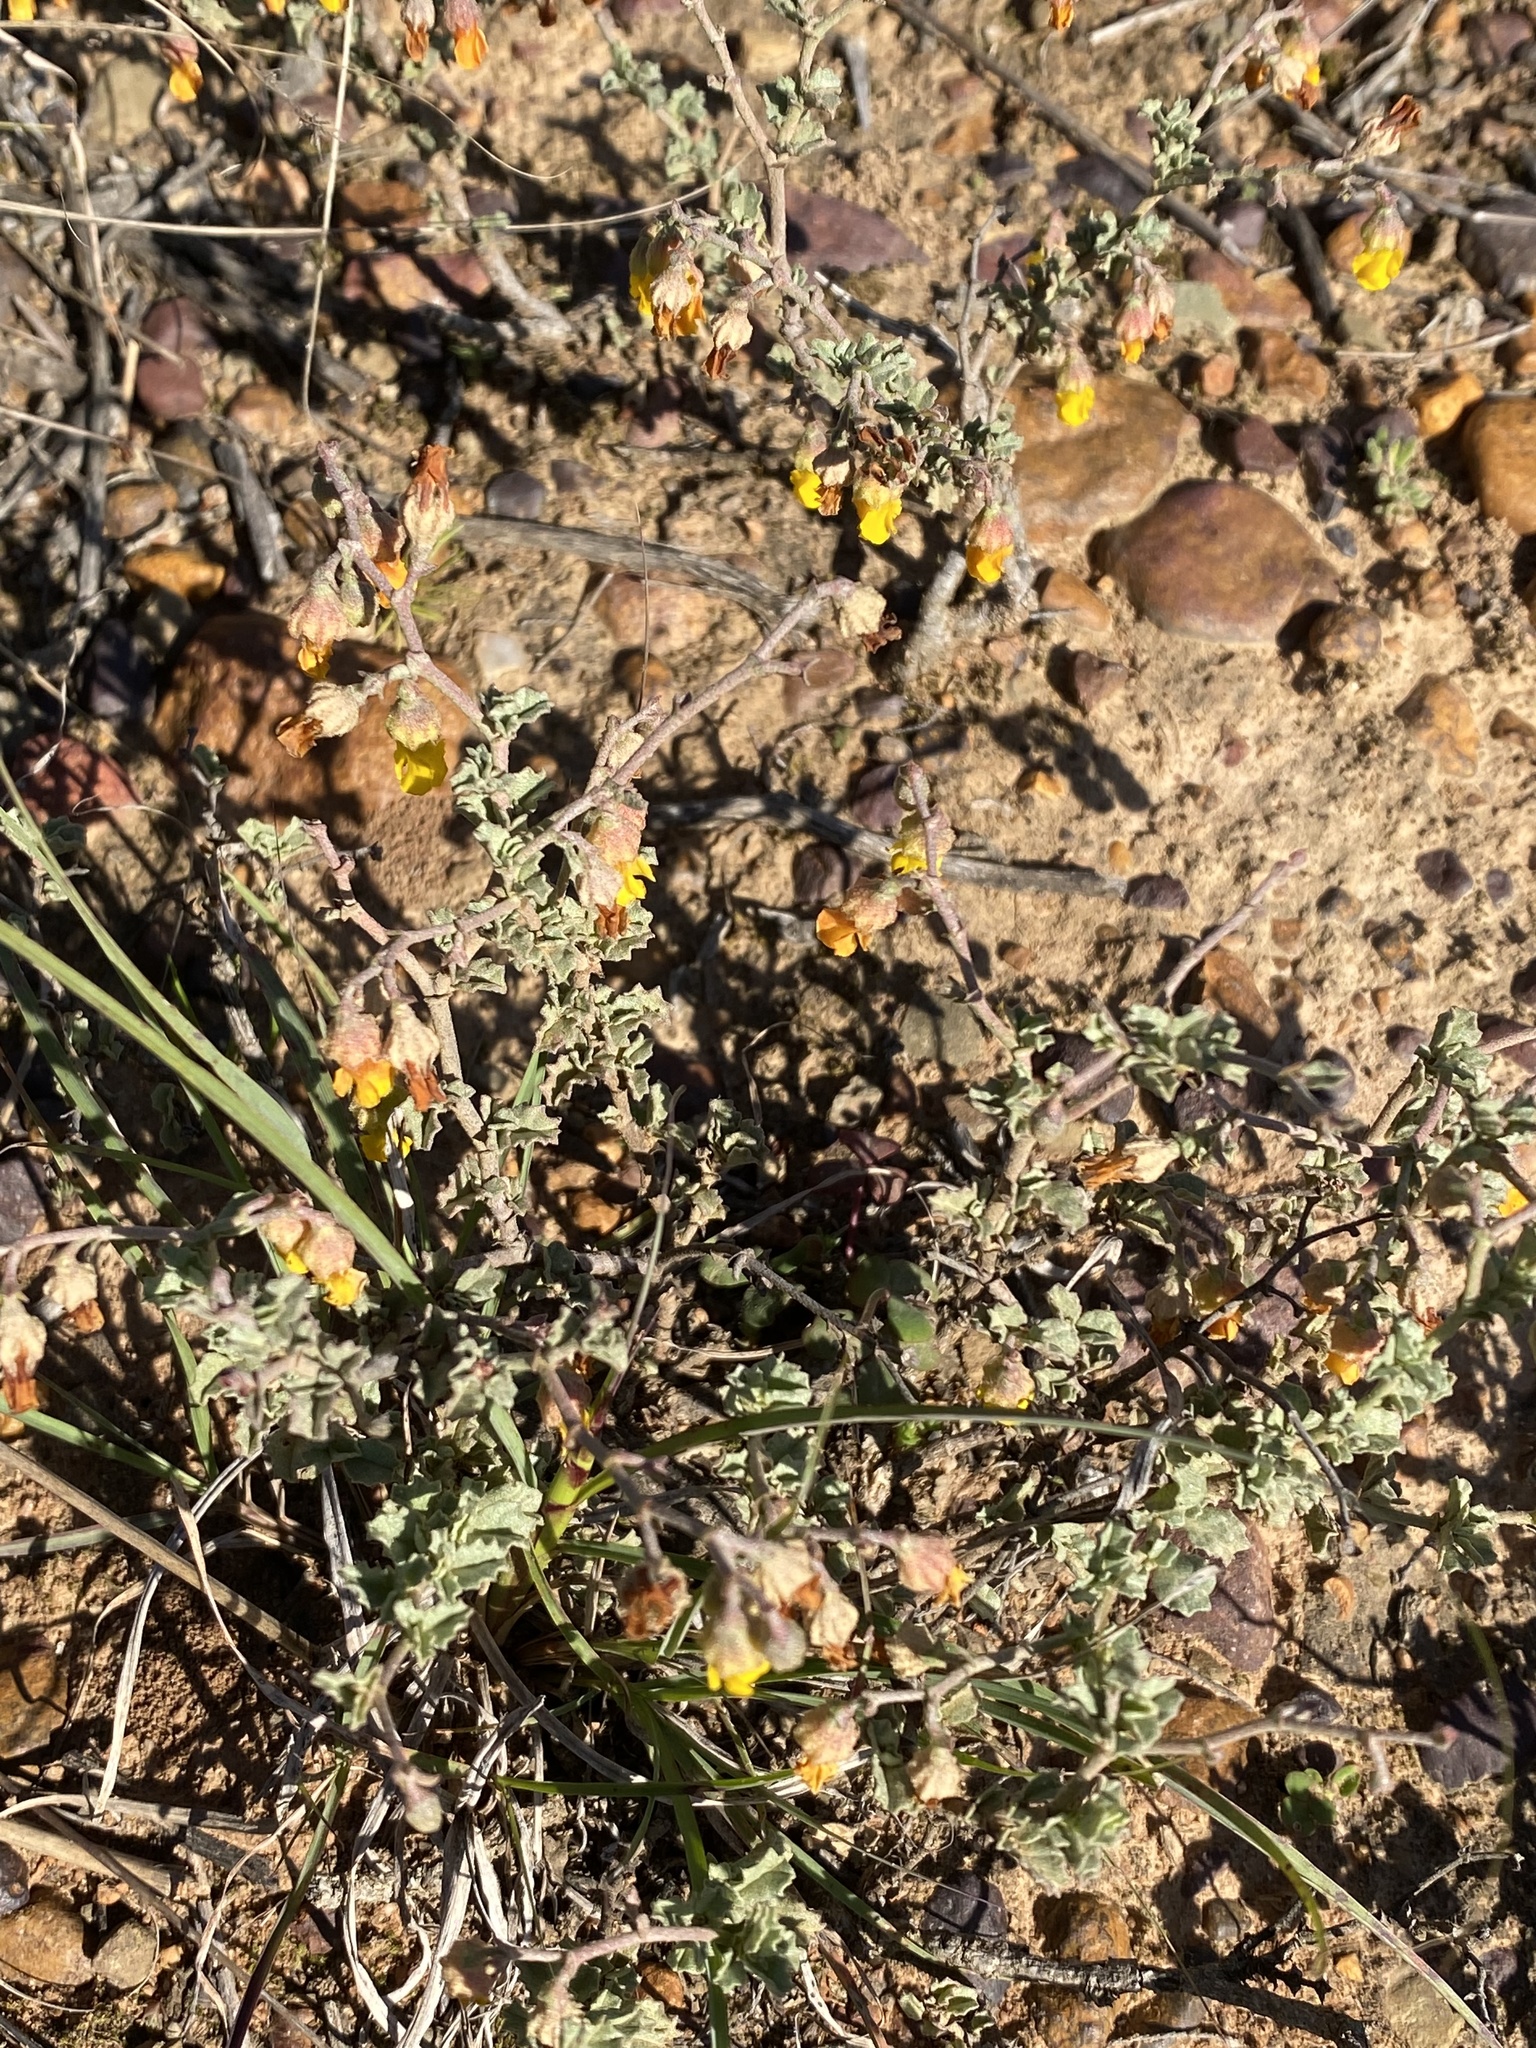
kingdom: Plantae
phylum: Tracheophyta
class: Magnoliopsida
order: Malvales
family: Malvaceae
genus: Hermannia
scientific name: Hermannia cuneifolia
